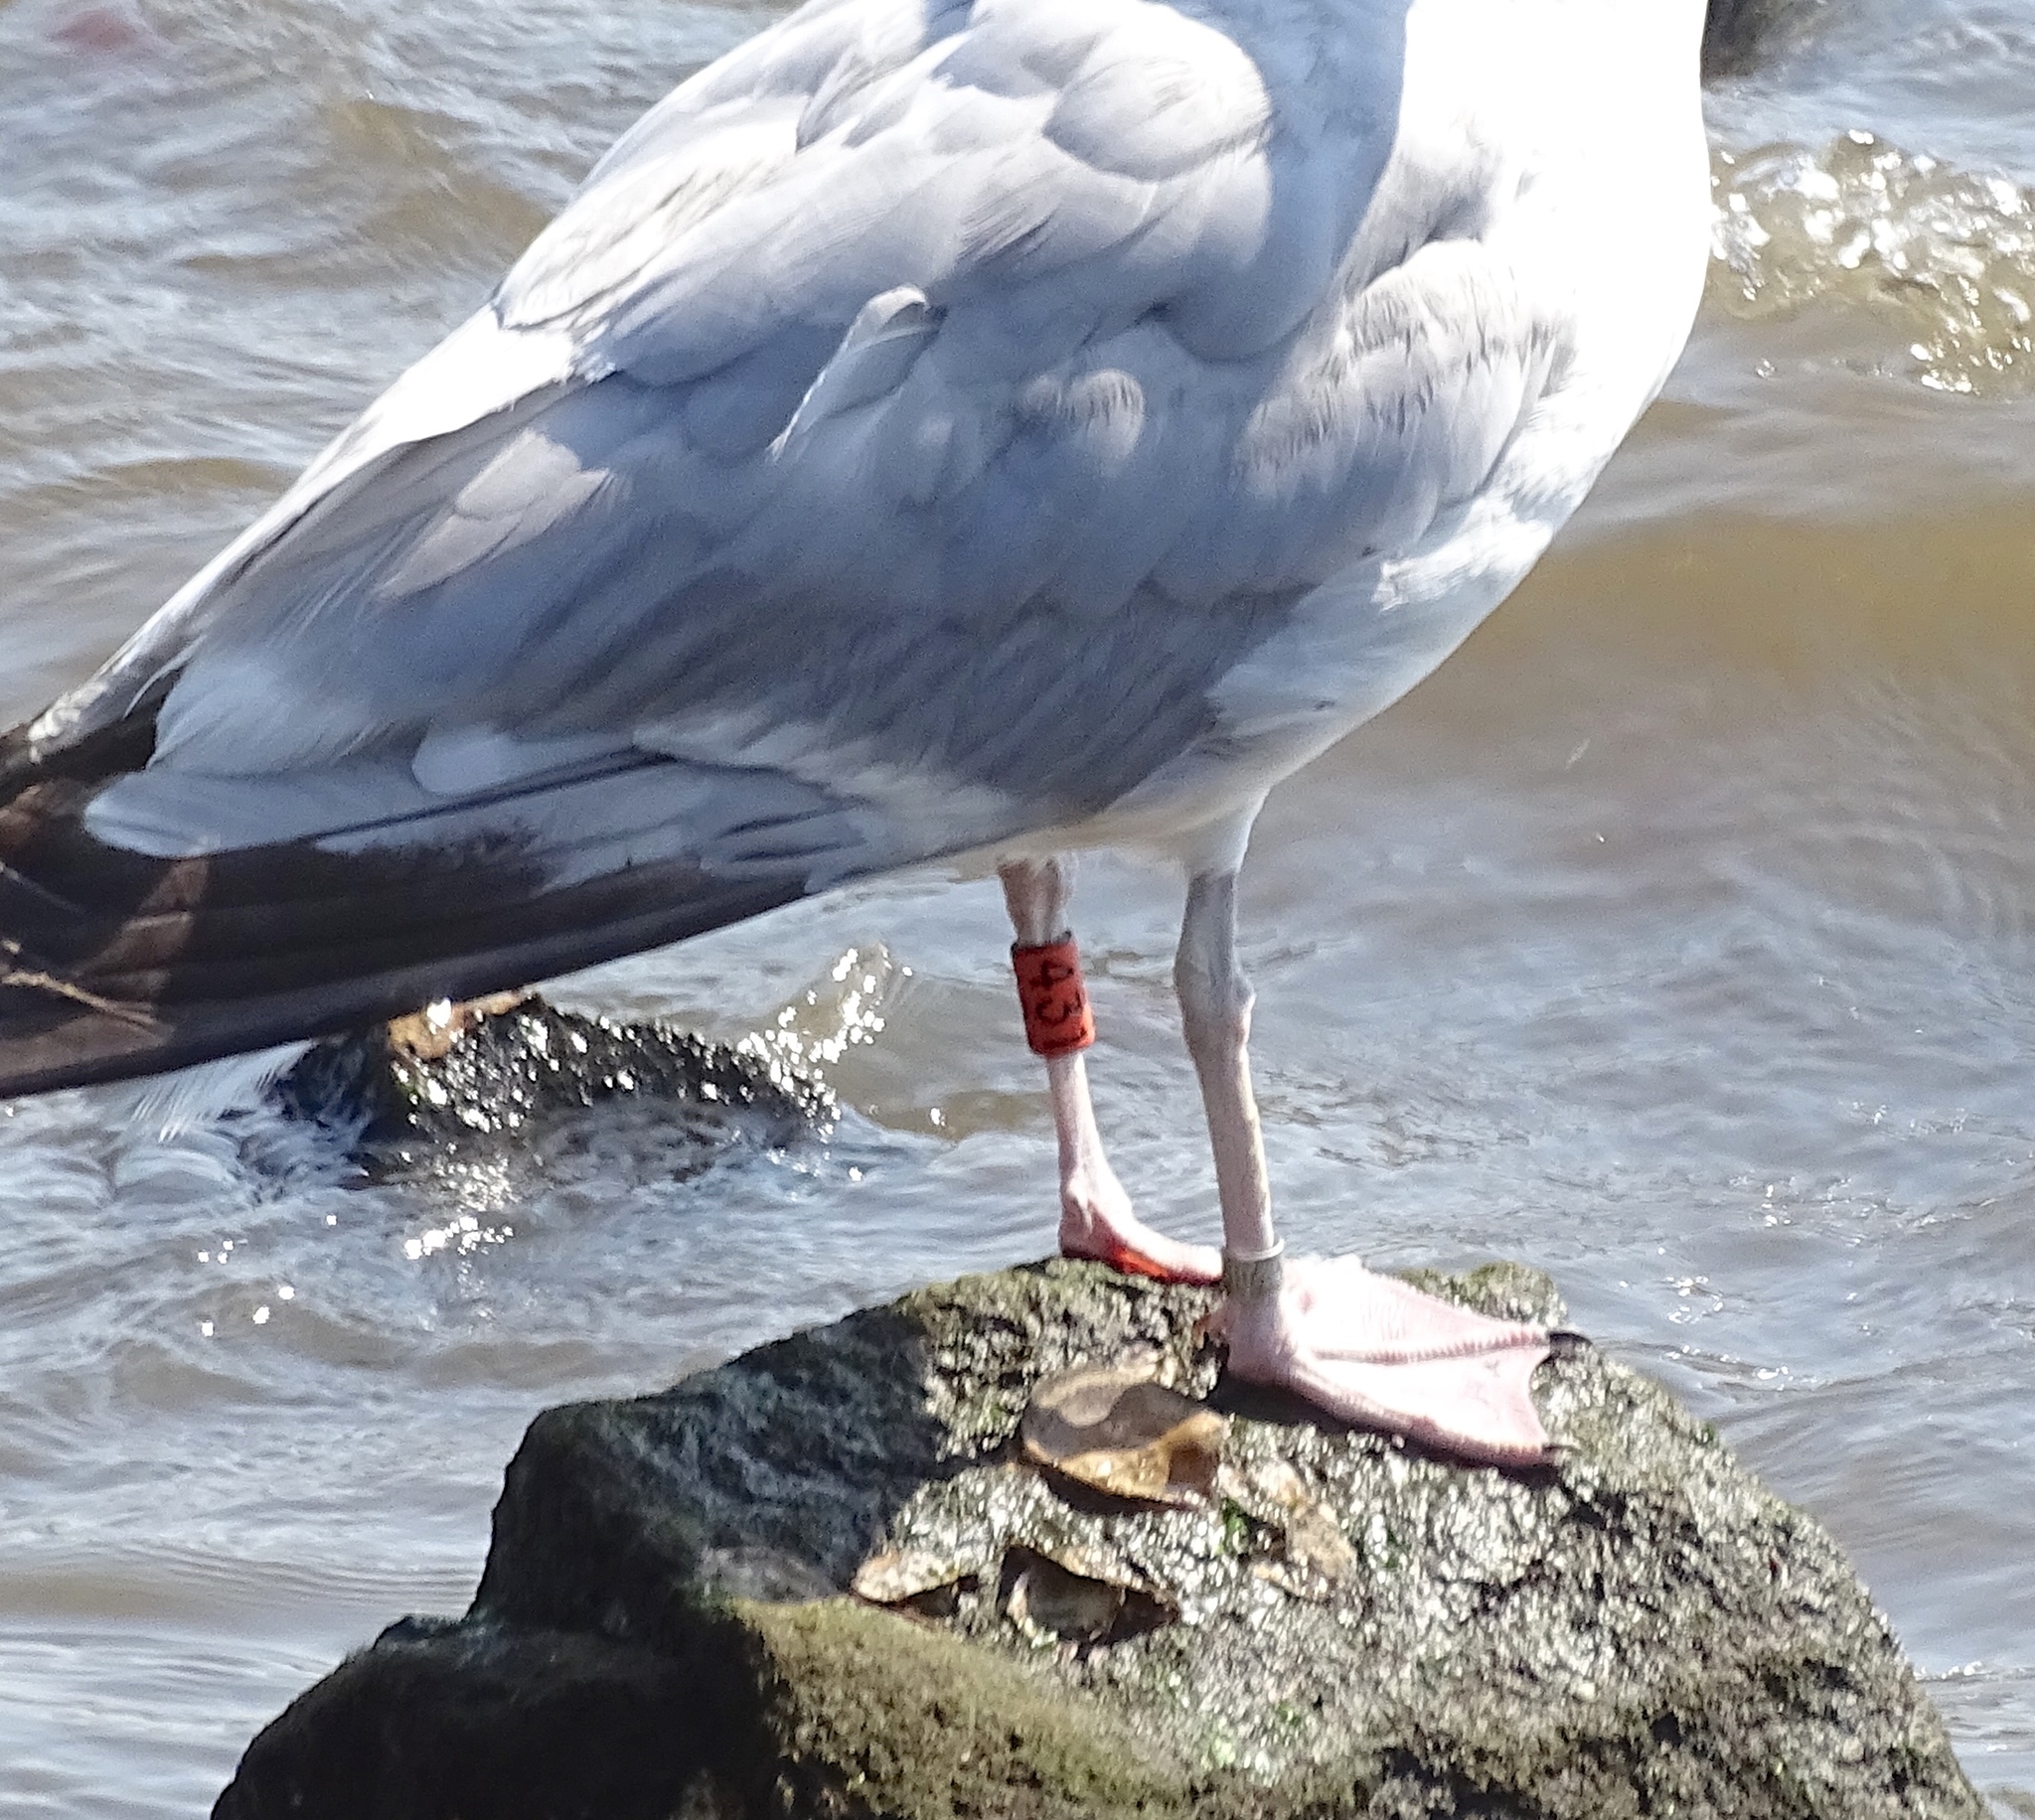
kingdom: Animalia
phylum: Chordata
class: Aves
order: Charadriiformes
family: Laridae
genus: Larus
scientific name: Larus argentatus
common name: Herring gull
